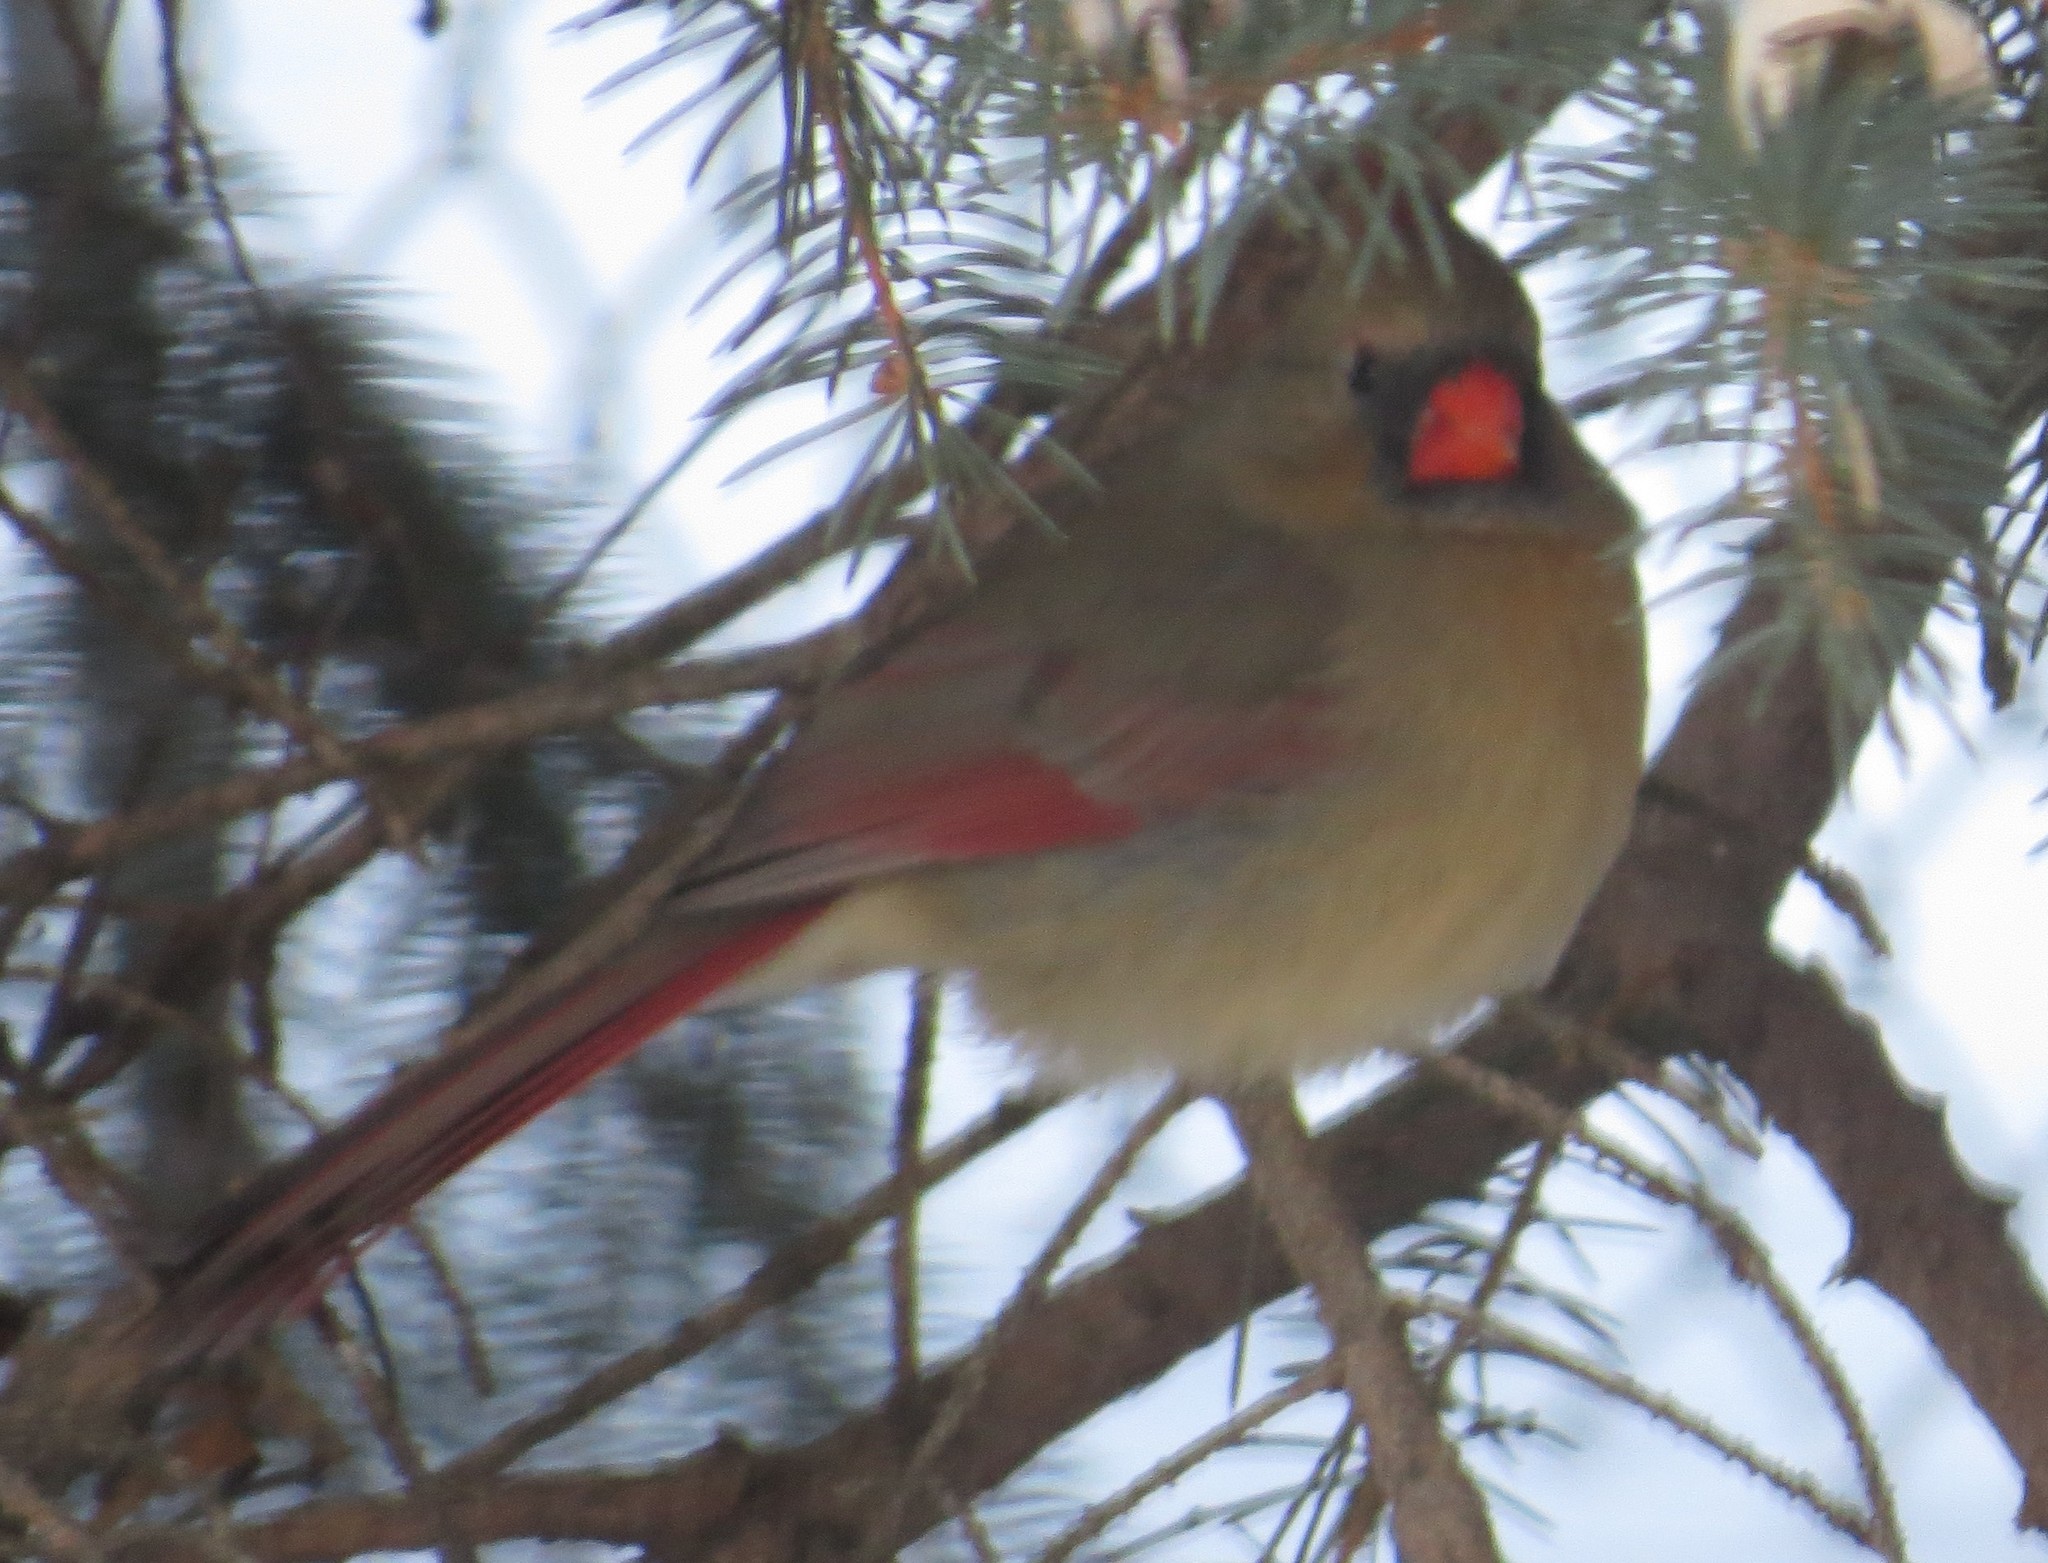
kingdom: Animalia
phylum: Chordata
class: Aves
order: Passeriformes
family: Cardinalidae
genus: Cardinalis
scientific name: Cardinalis cardinalis
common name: Northern cardinal
